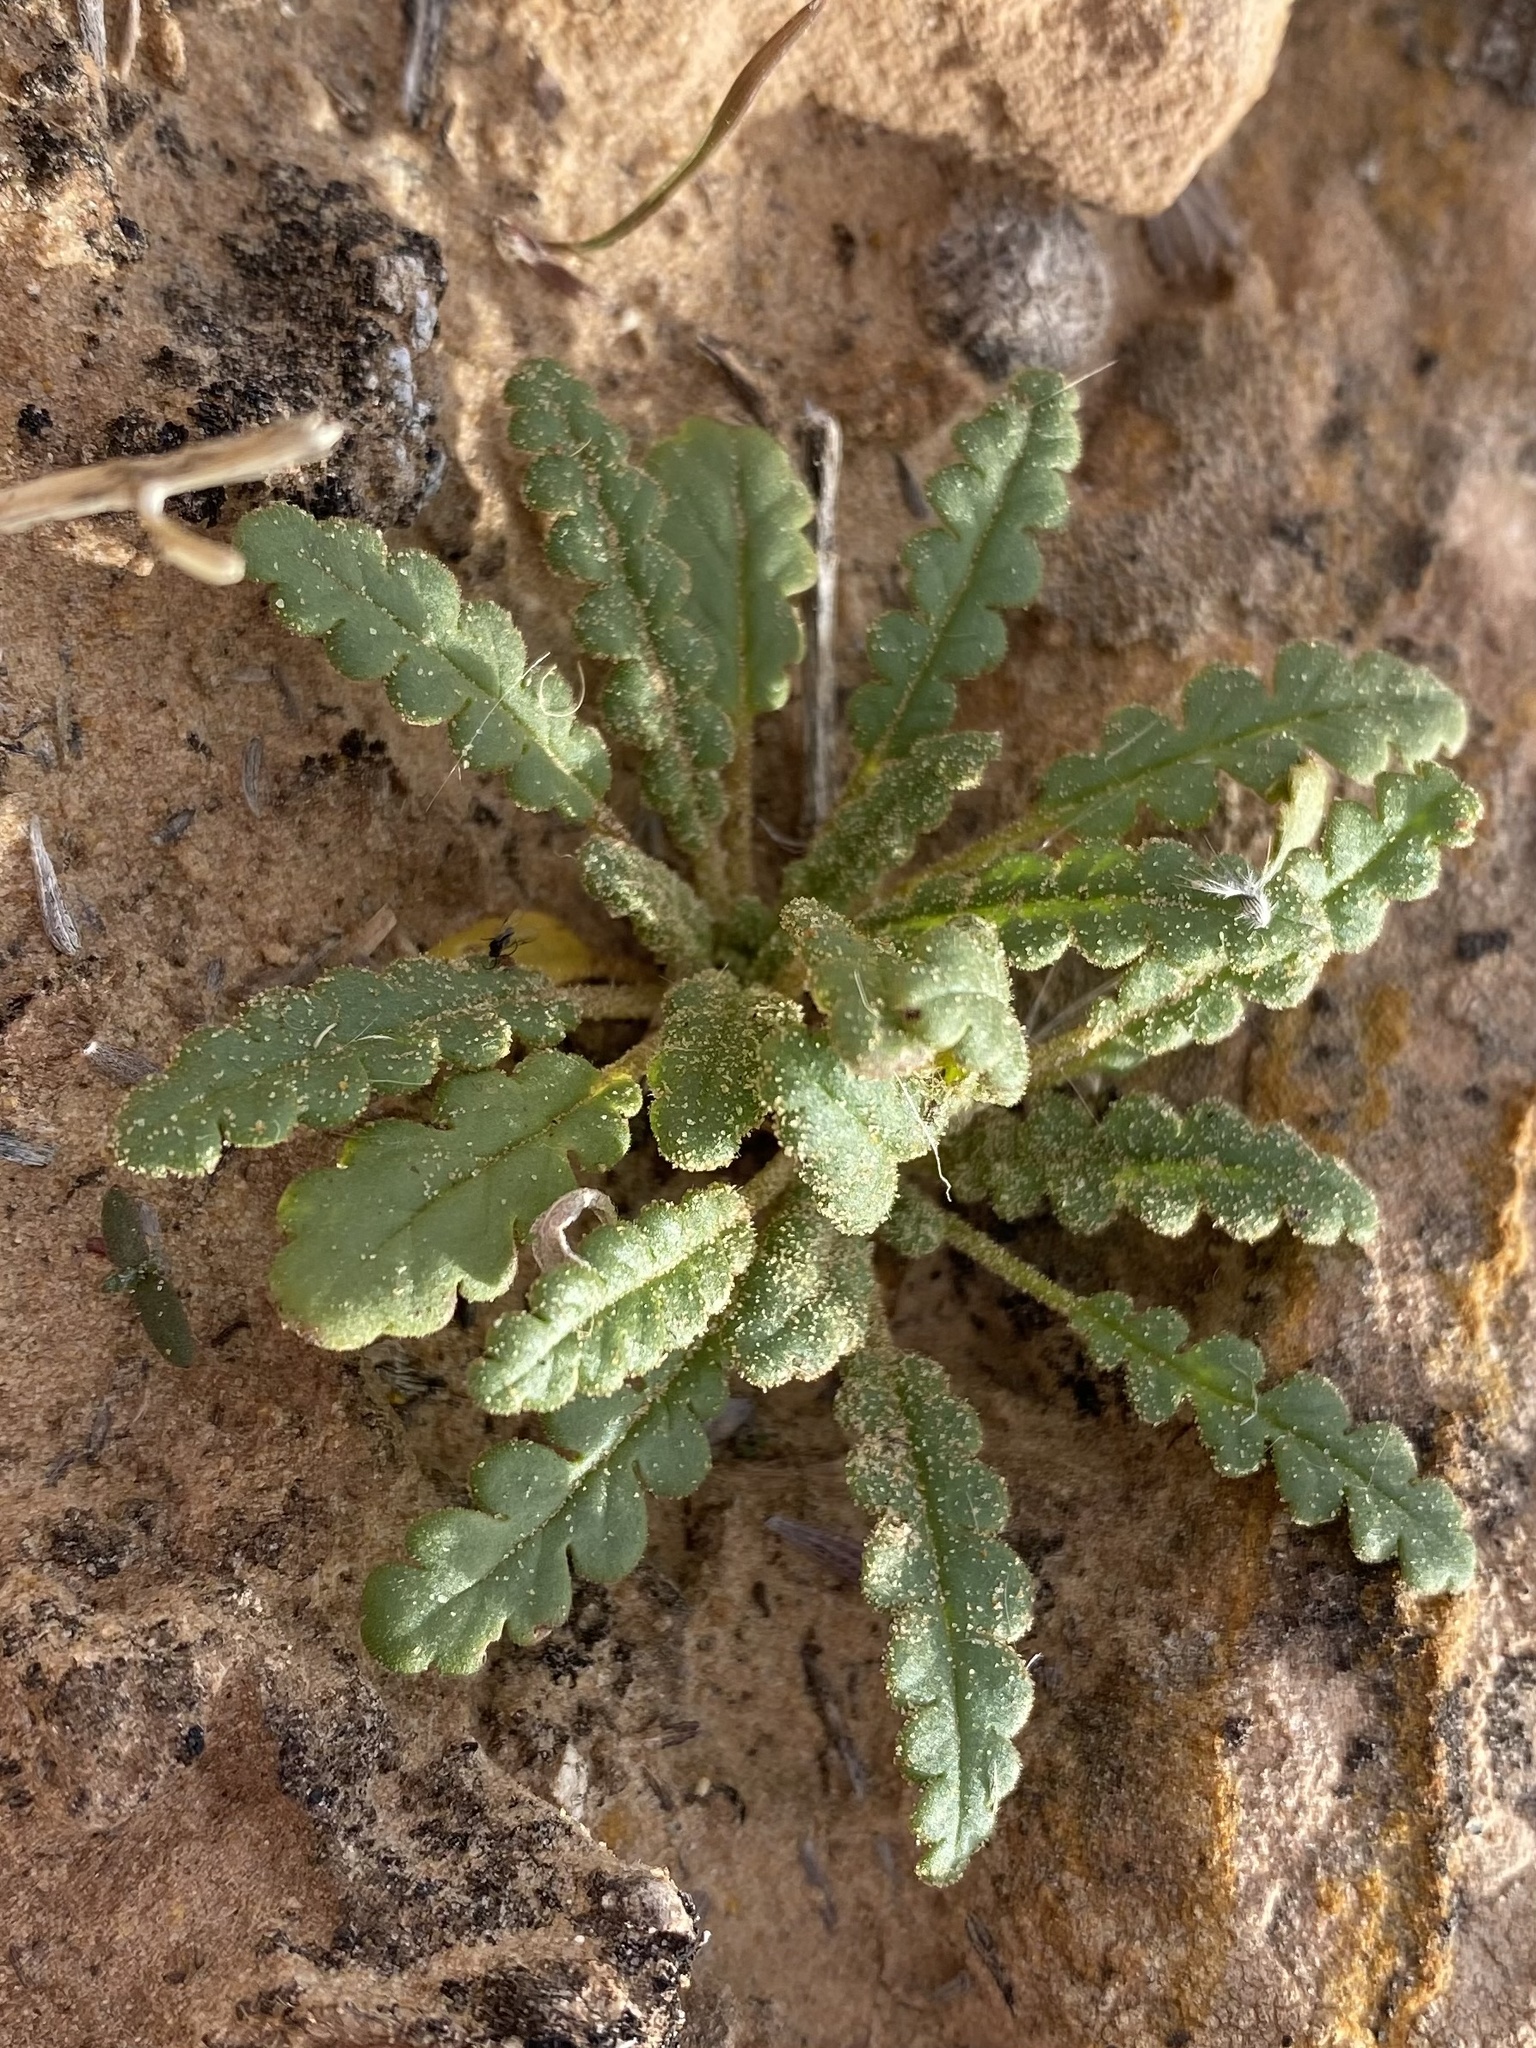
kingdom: Plantae
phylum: Tracheophyta
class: Magnoliopsida
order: Boraginales
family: Hydrophyllaceae
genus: Phacelia
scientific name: Phacelia integrifolia
